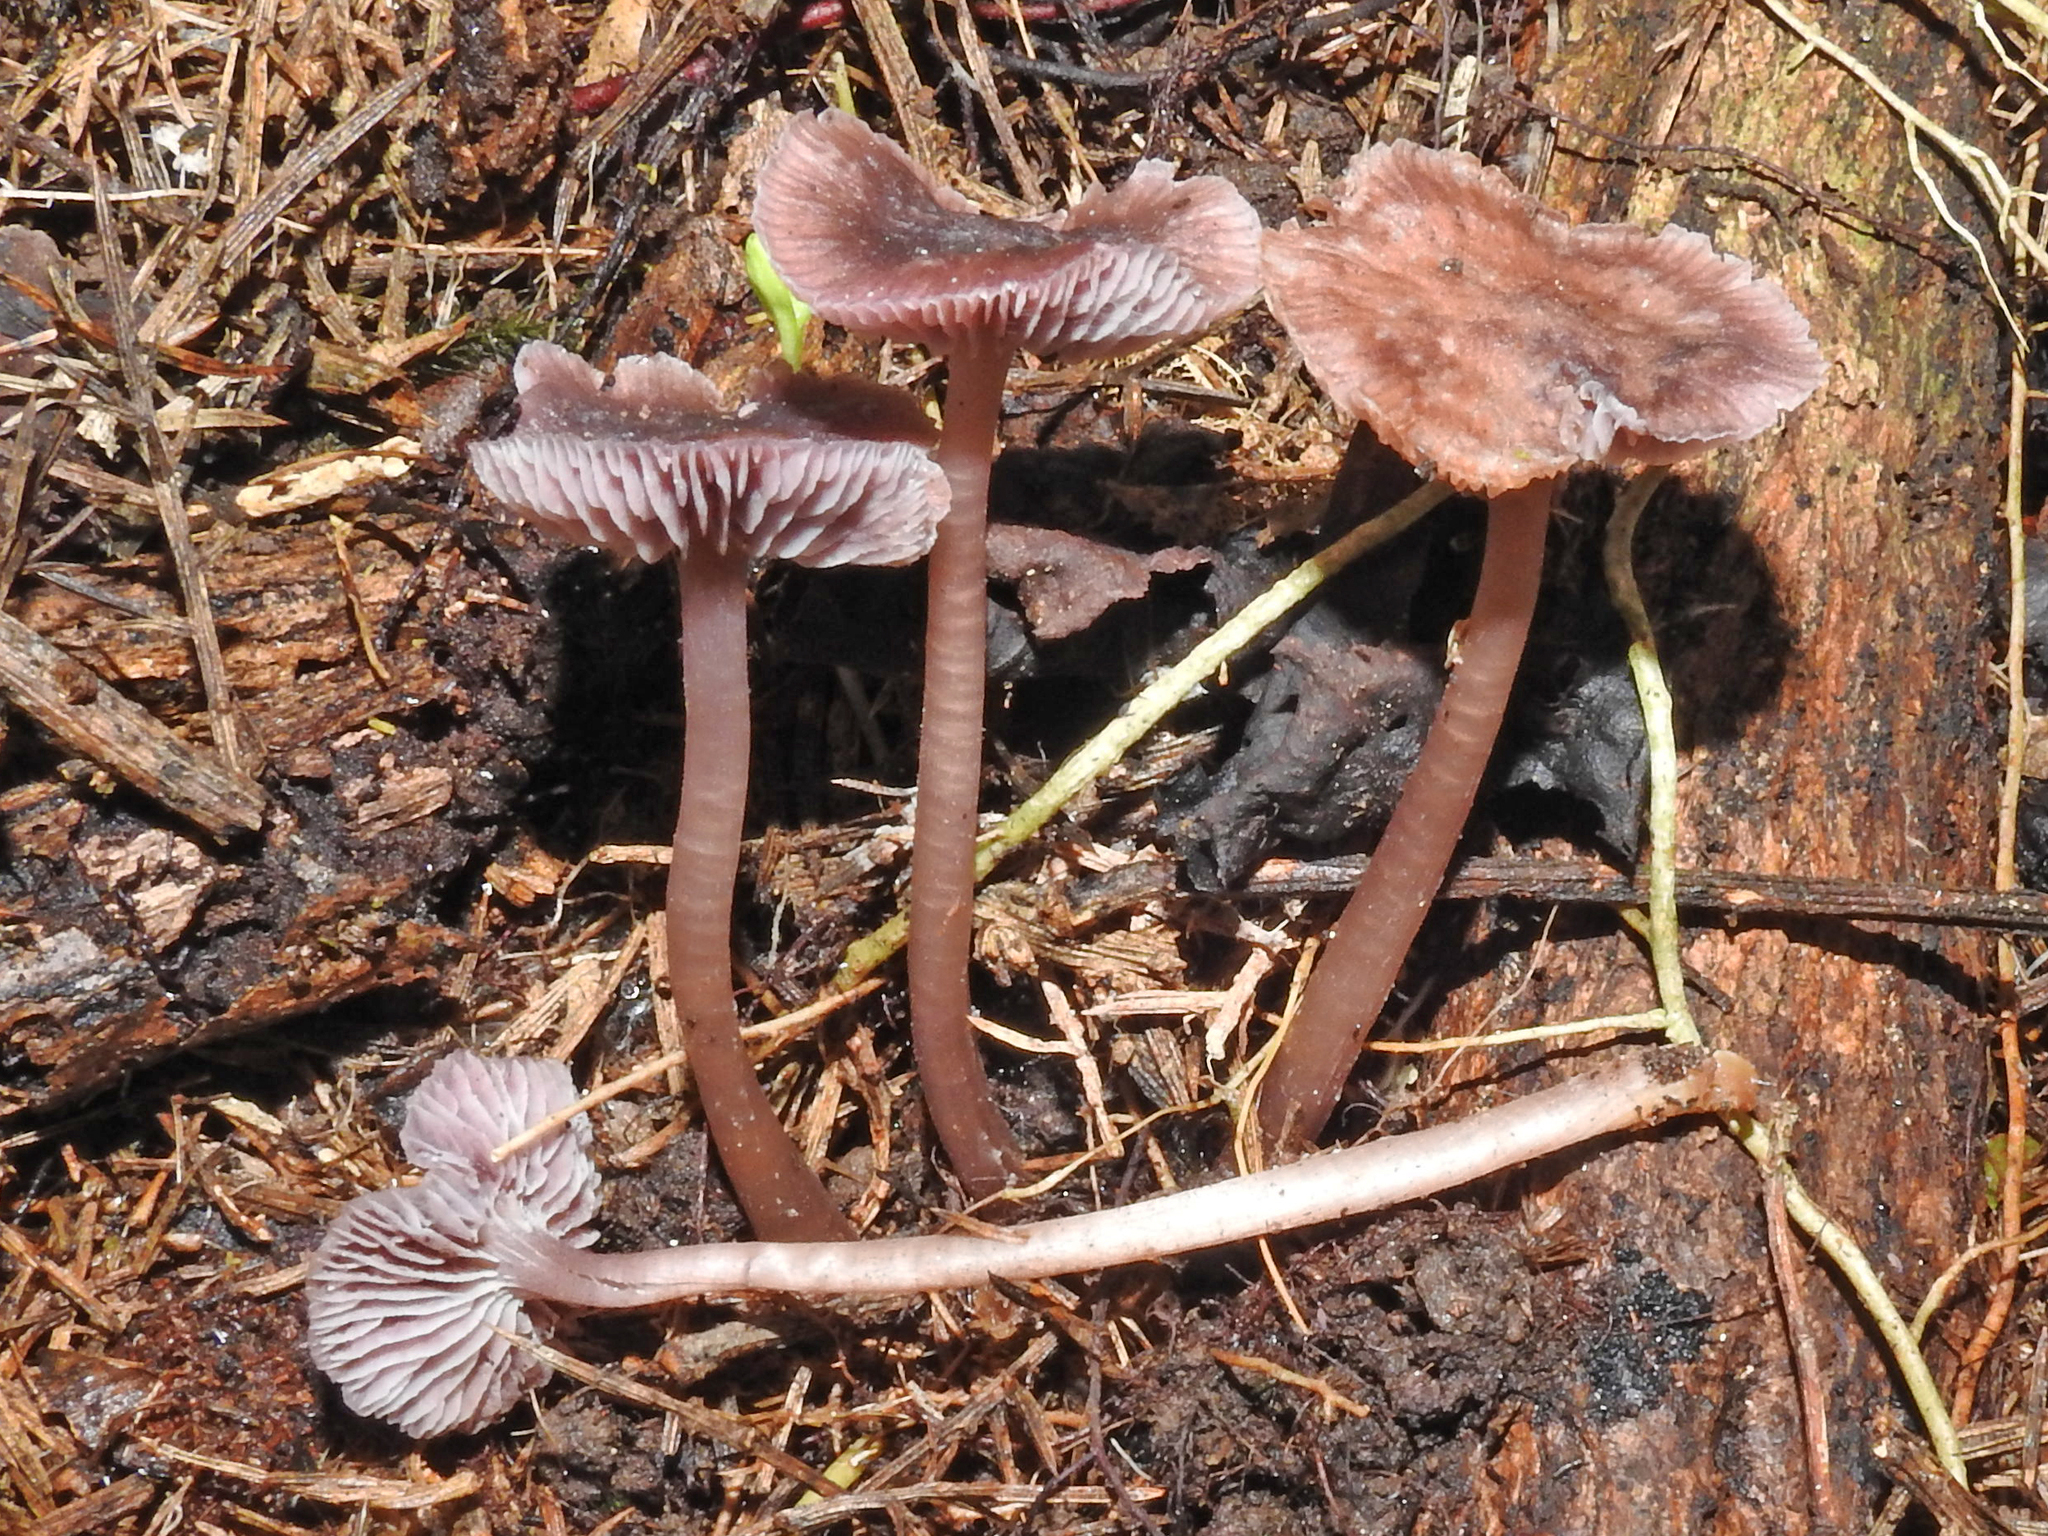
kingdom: Fungi
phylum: Basidiomycota
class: Agaricomycetes
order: Agaricales
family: Mycenaceae
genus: Mycena
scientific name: Mycena fuscovinacea
